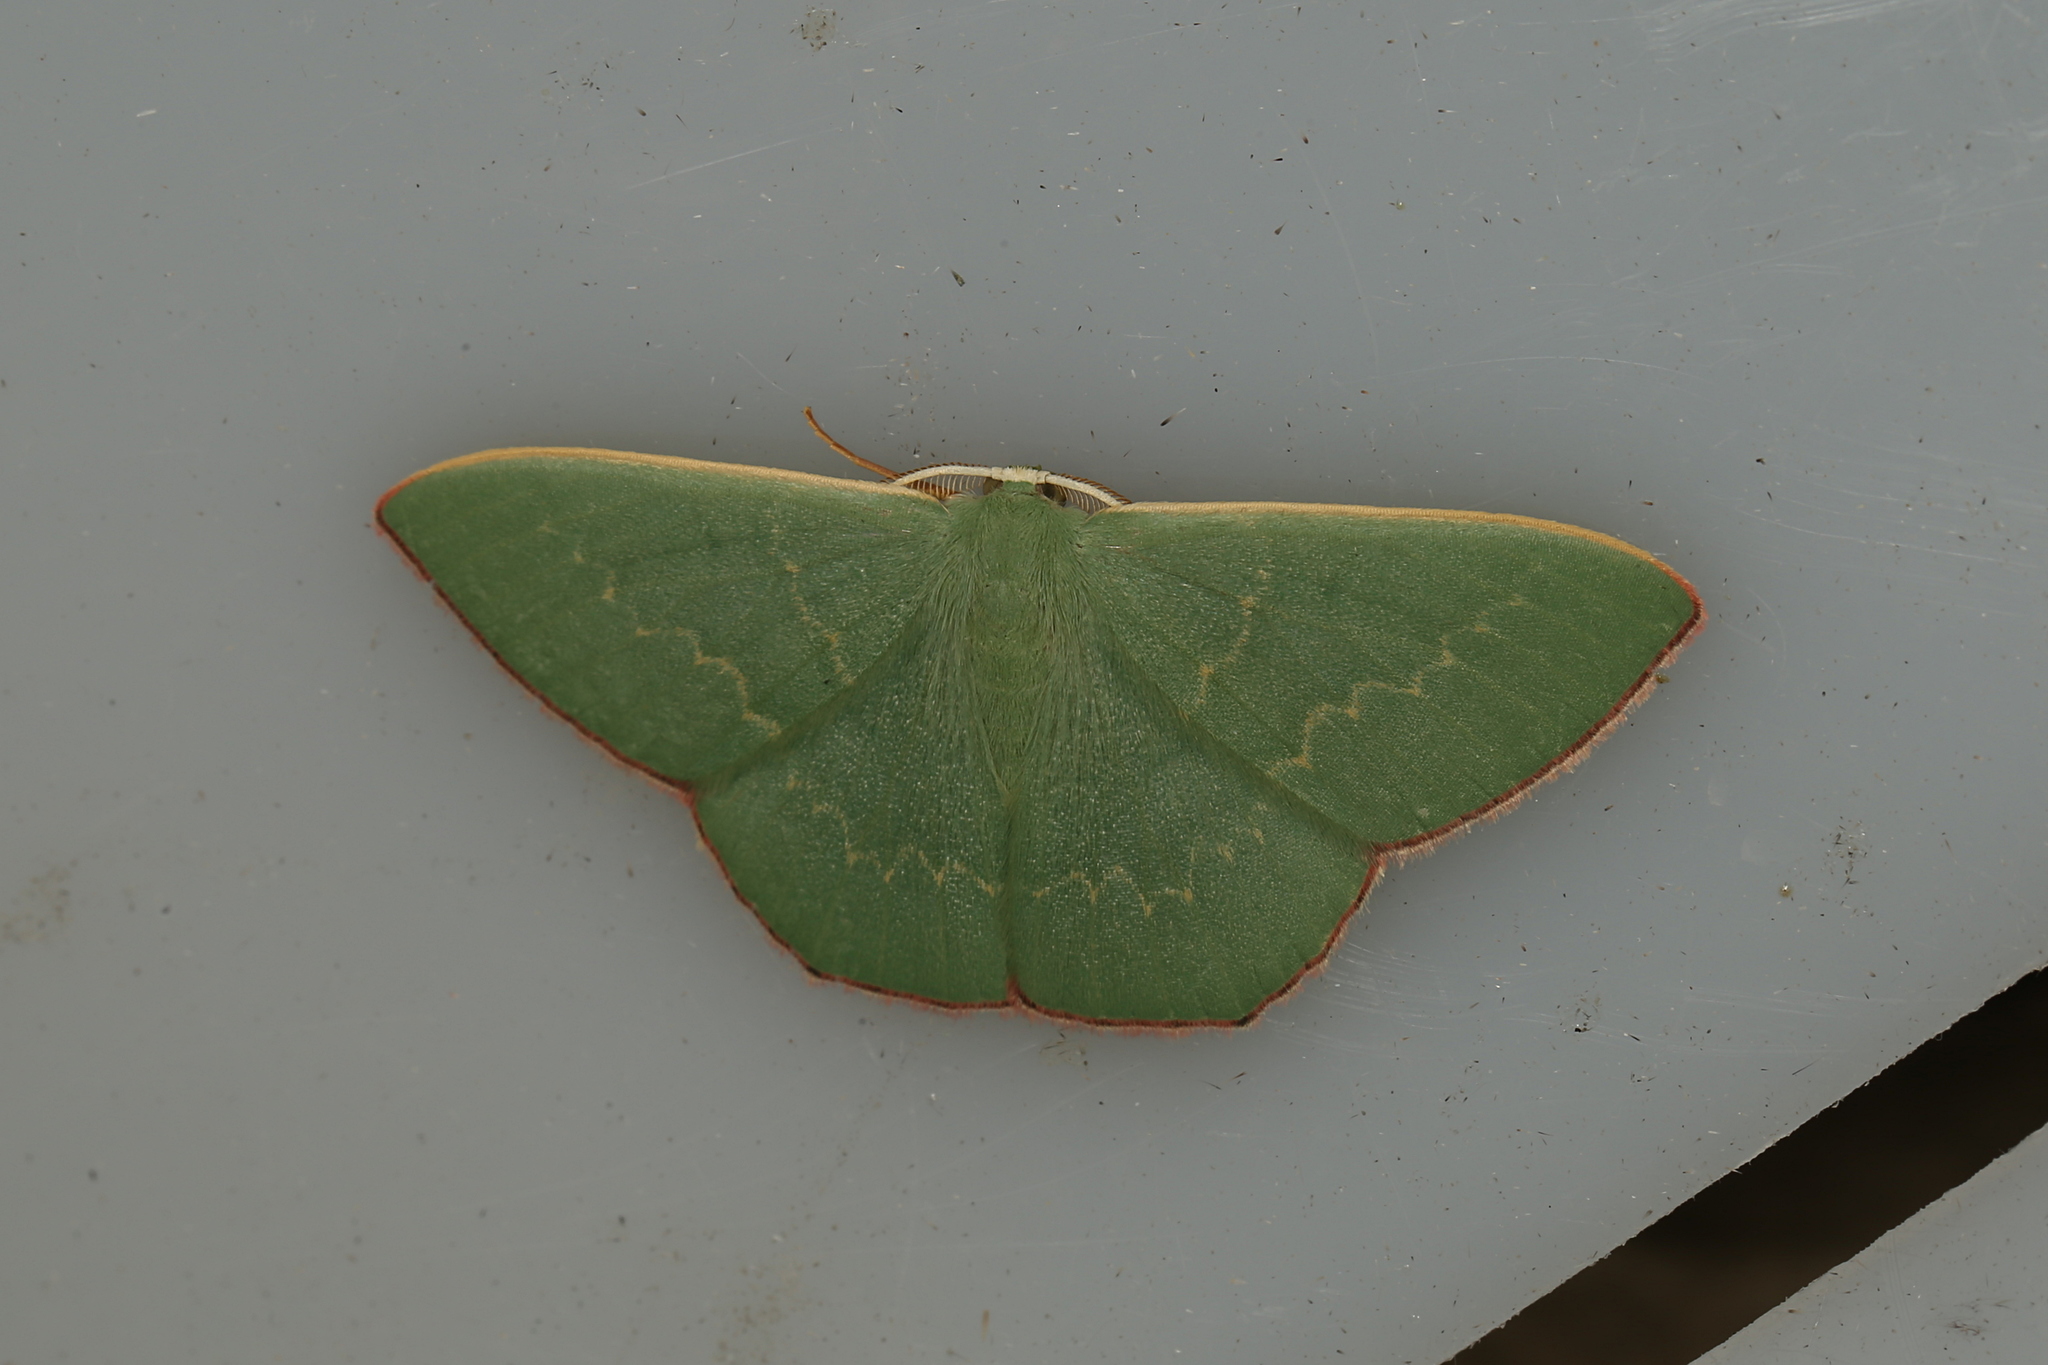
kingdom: Animalia
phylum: Arthropoda
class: Insecta
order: Lepidoptera
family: Geometridae
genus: Prasinocyma
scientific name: Prasinocyma semicrocea
